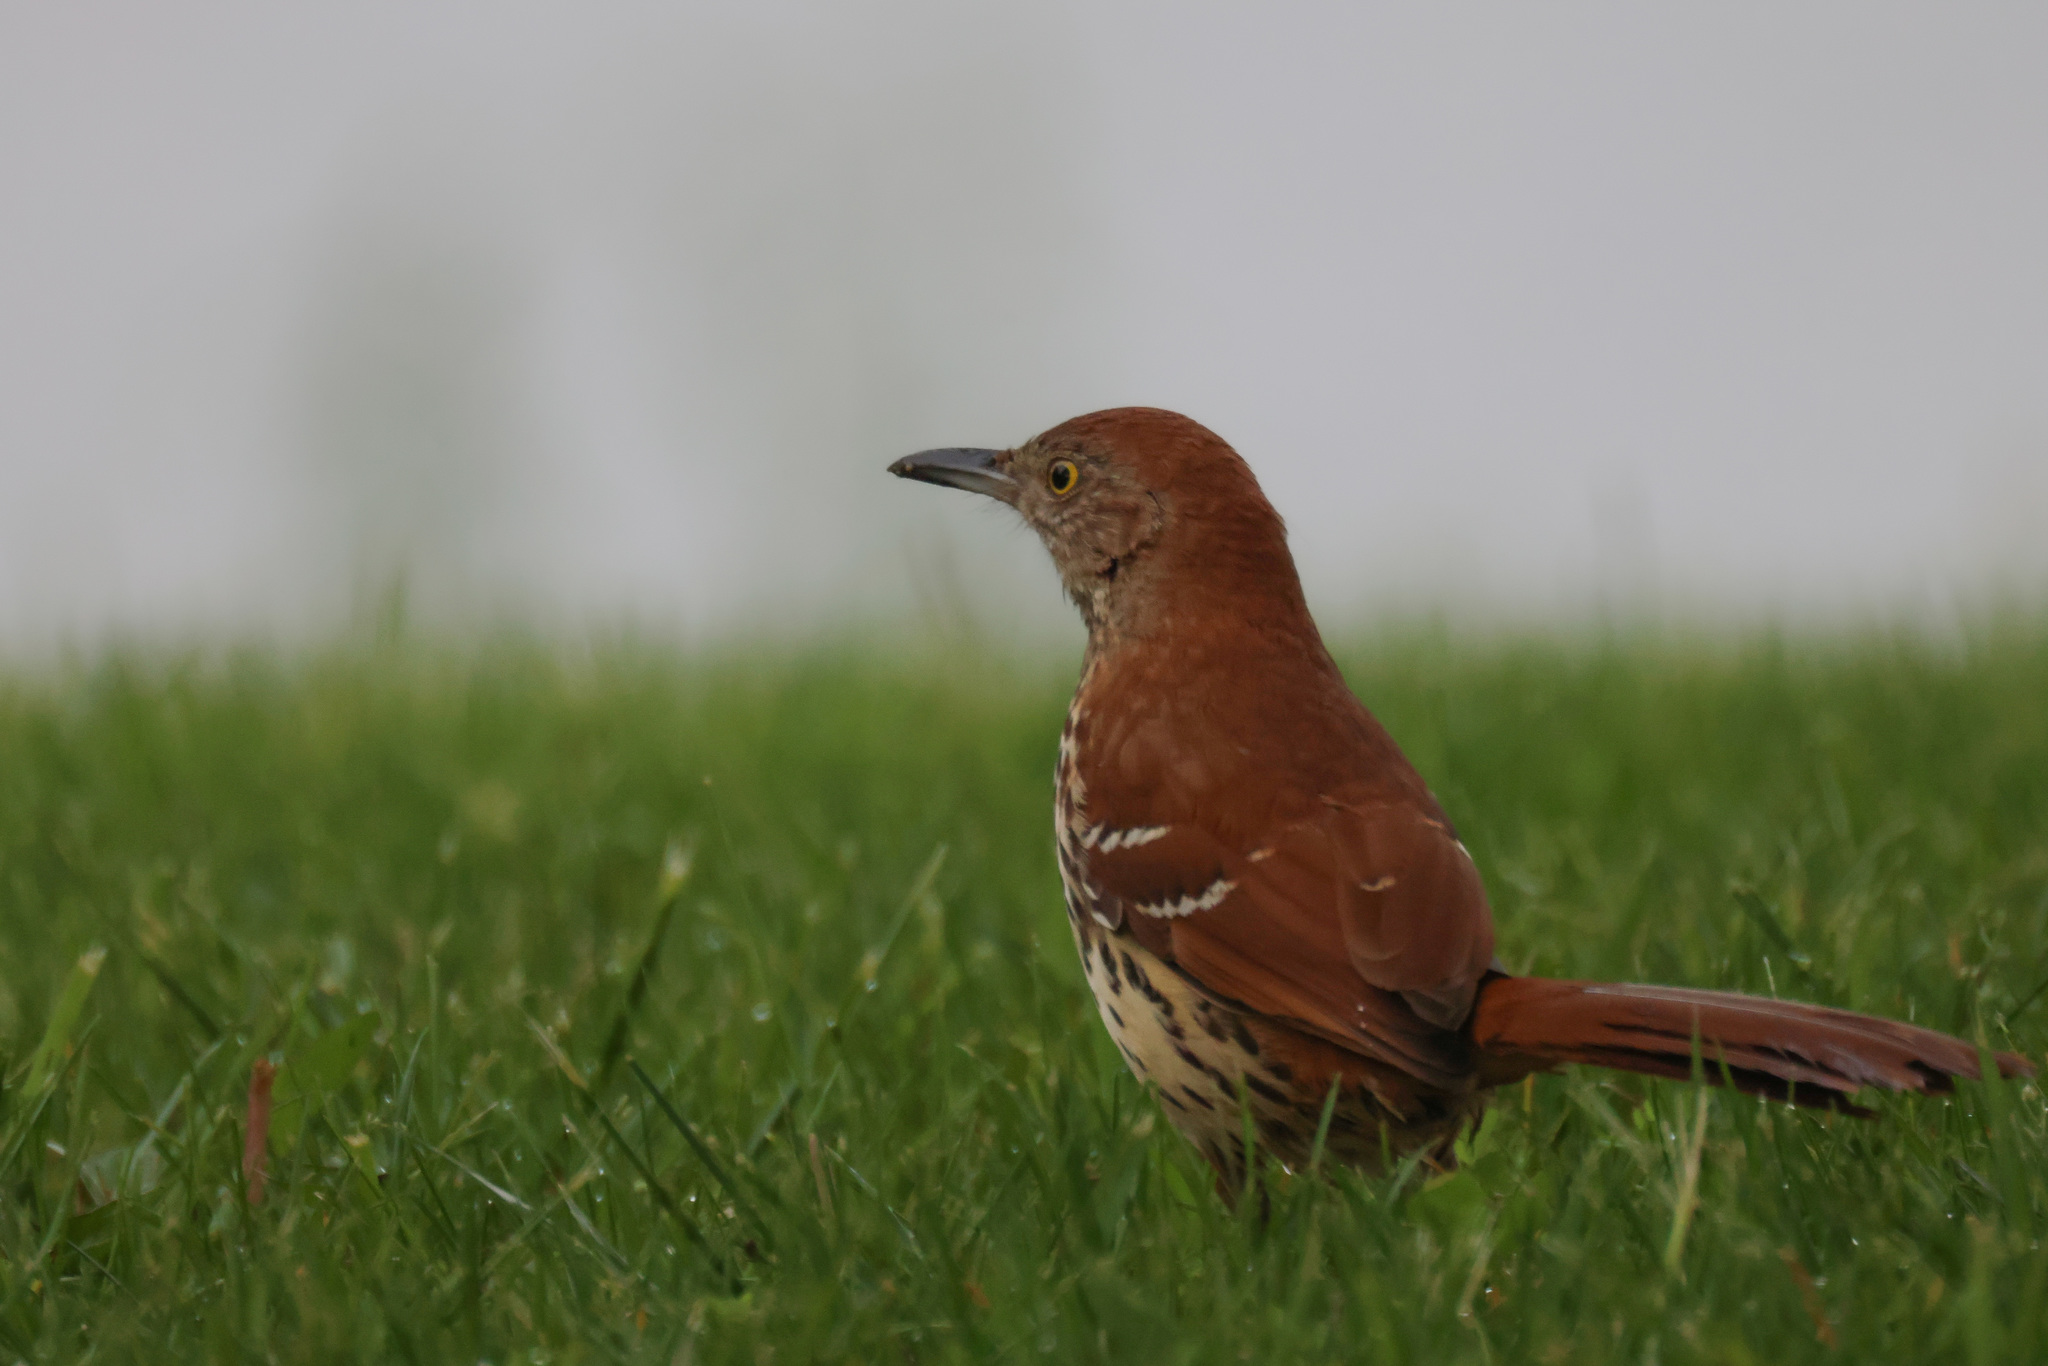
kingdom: Animalia
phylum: Chordata
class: Aves
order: Passeriformes
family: Mimidae
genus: Toxostoma
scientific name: Toxostoma rufum
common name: Brown thrasher
